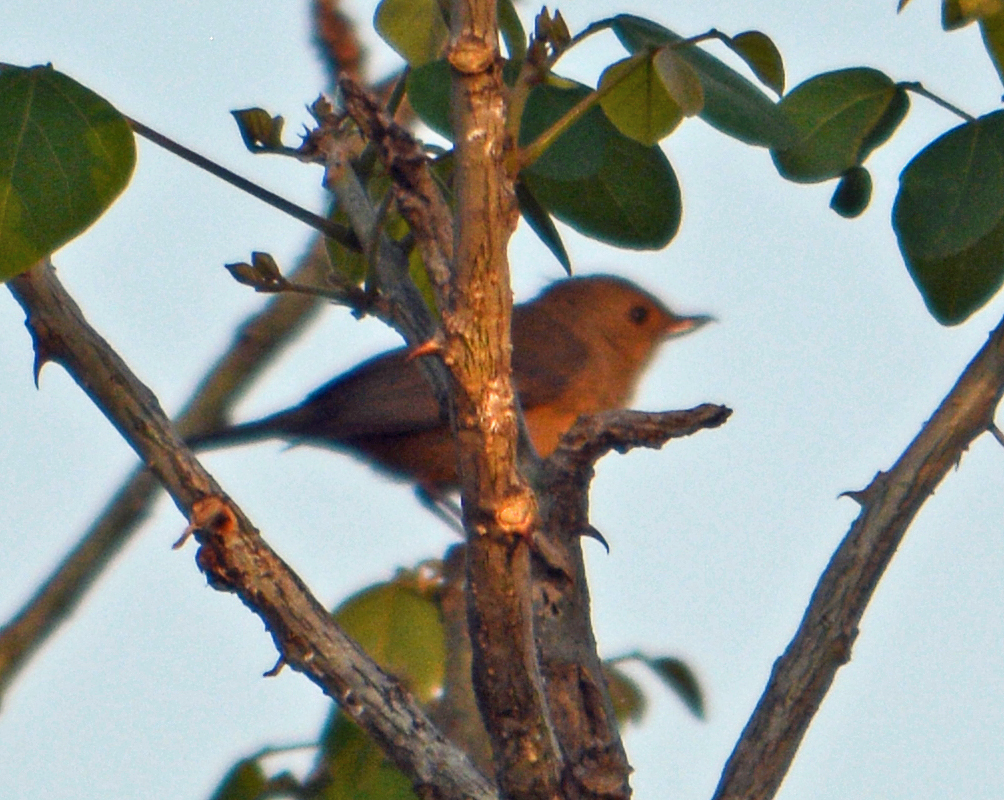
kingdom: Animalia
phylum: Chordata
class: Aves
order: Passeriformes
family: Thraupidae
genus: Diglossa
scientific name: Diglossa baritula
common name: Cinnamon-bellied flowerpiercer
